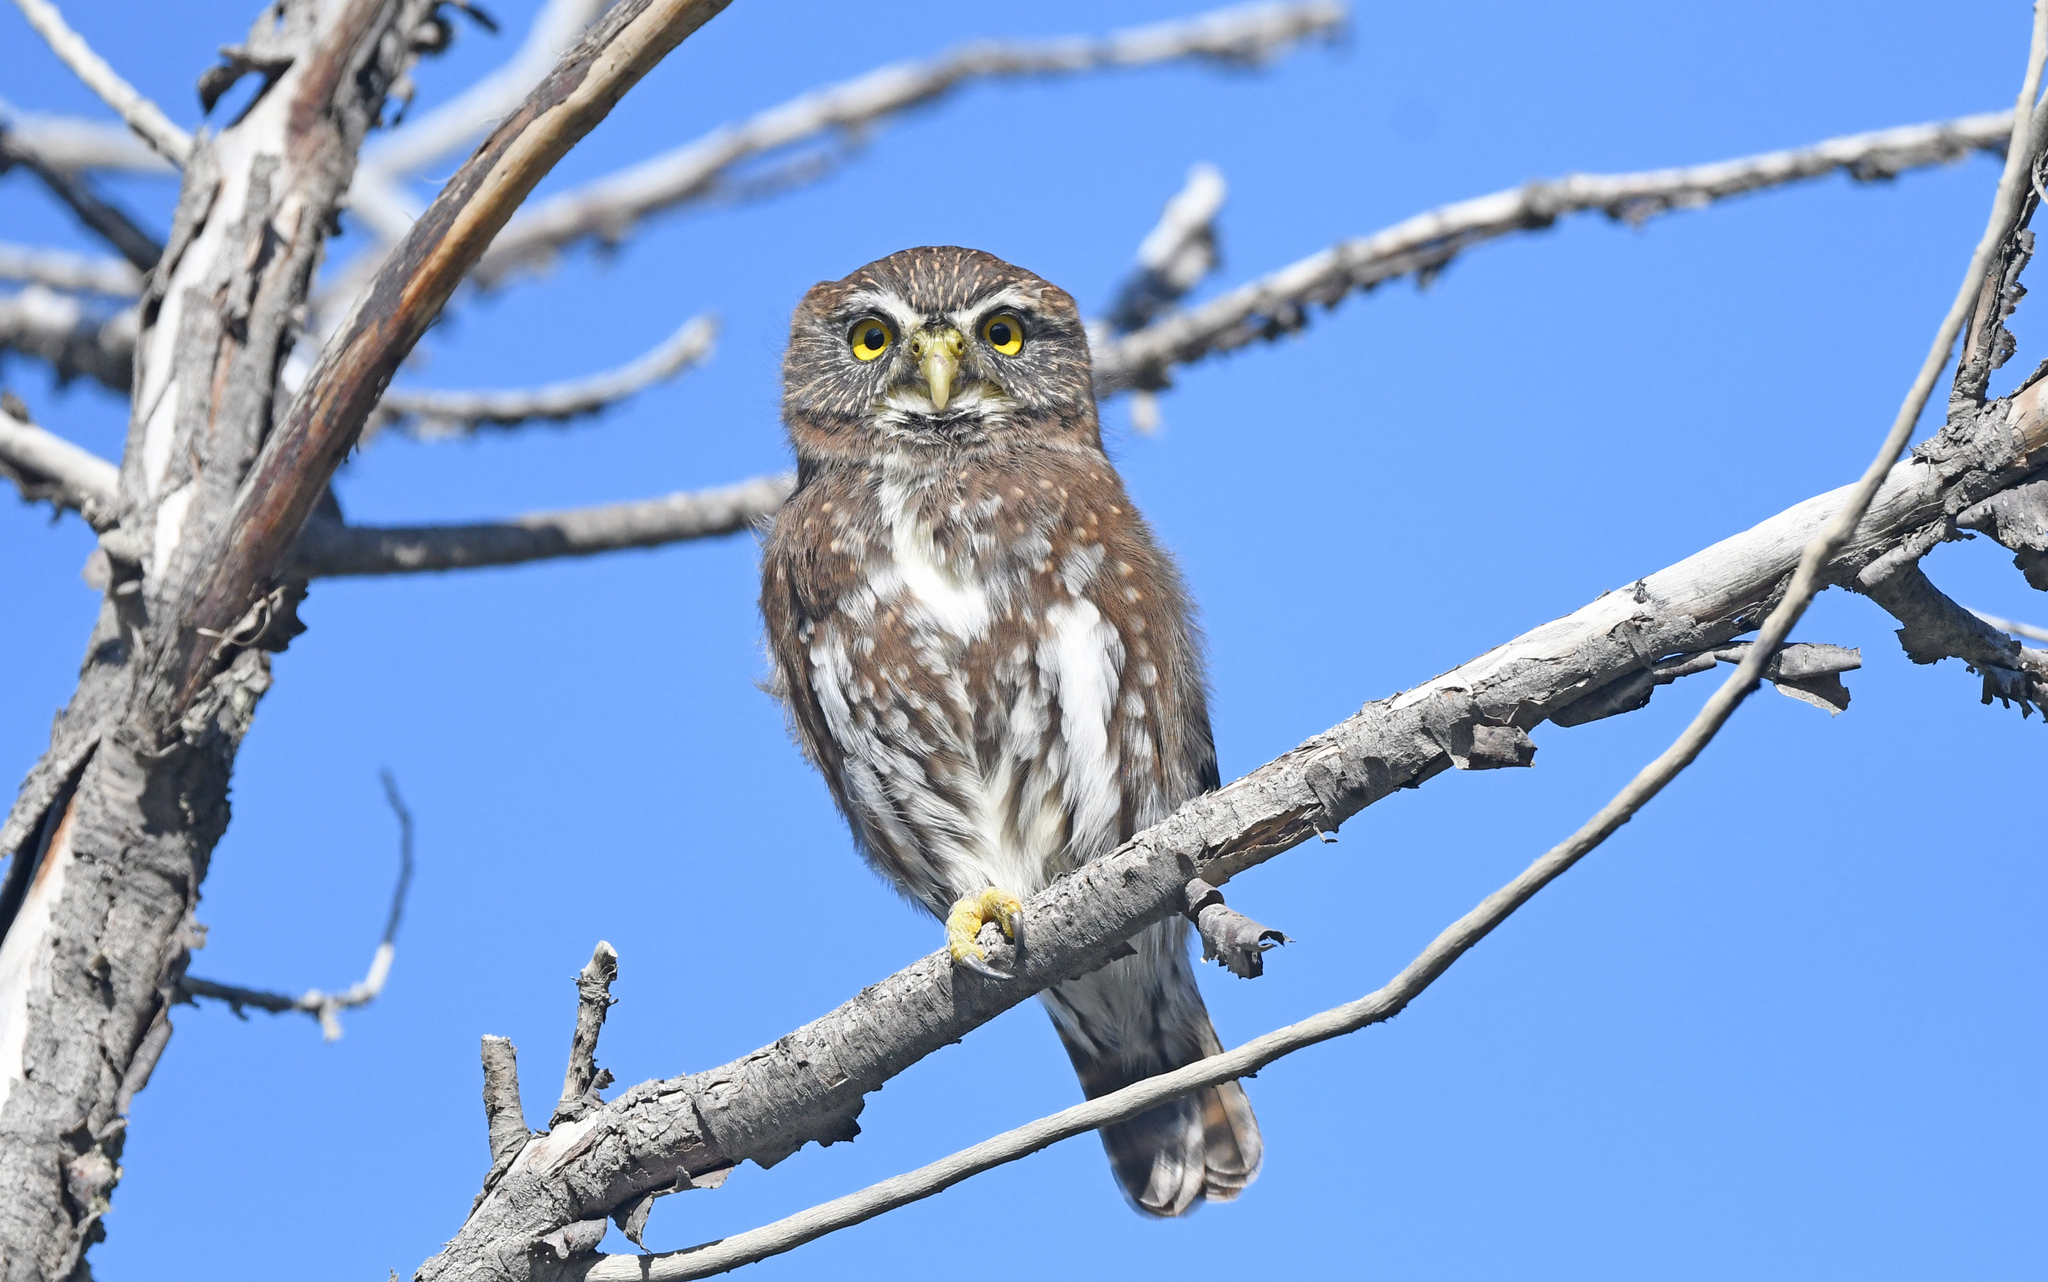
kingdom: Animalia
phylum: Chordata
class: Aves
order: Strigiformes
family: Strigidae
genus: Glaucidium
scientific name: Glaucidium nana
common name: Austral pygmy-owl
